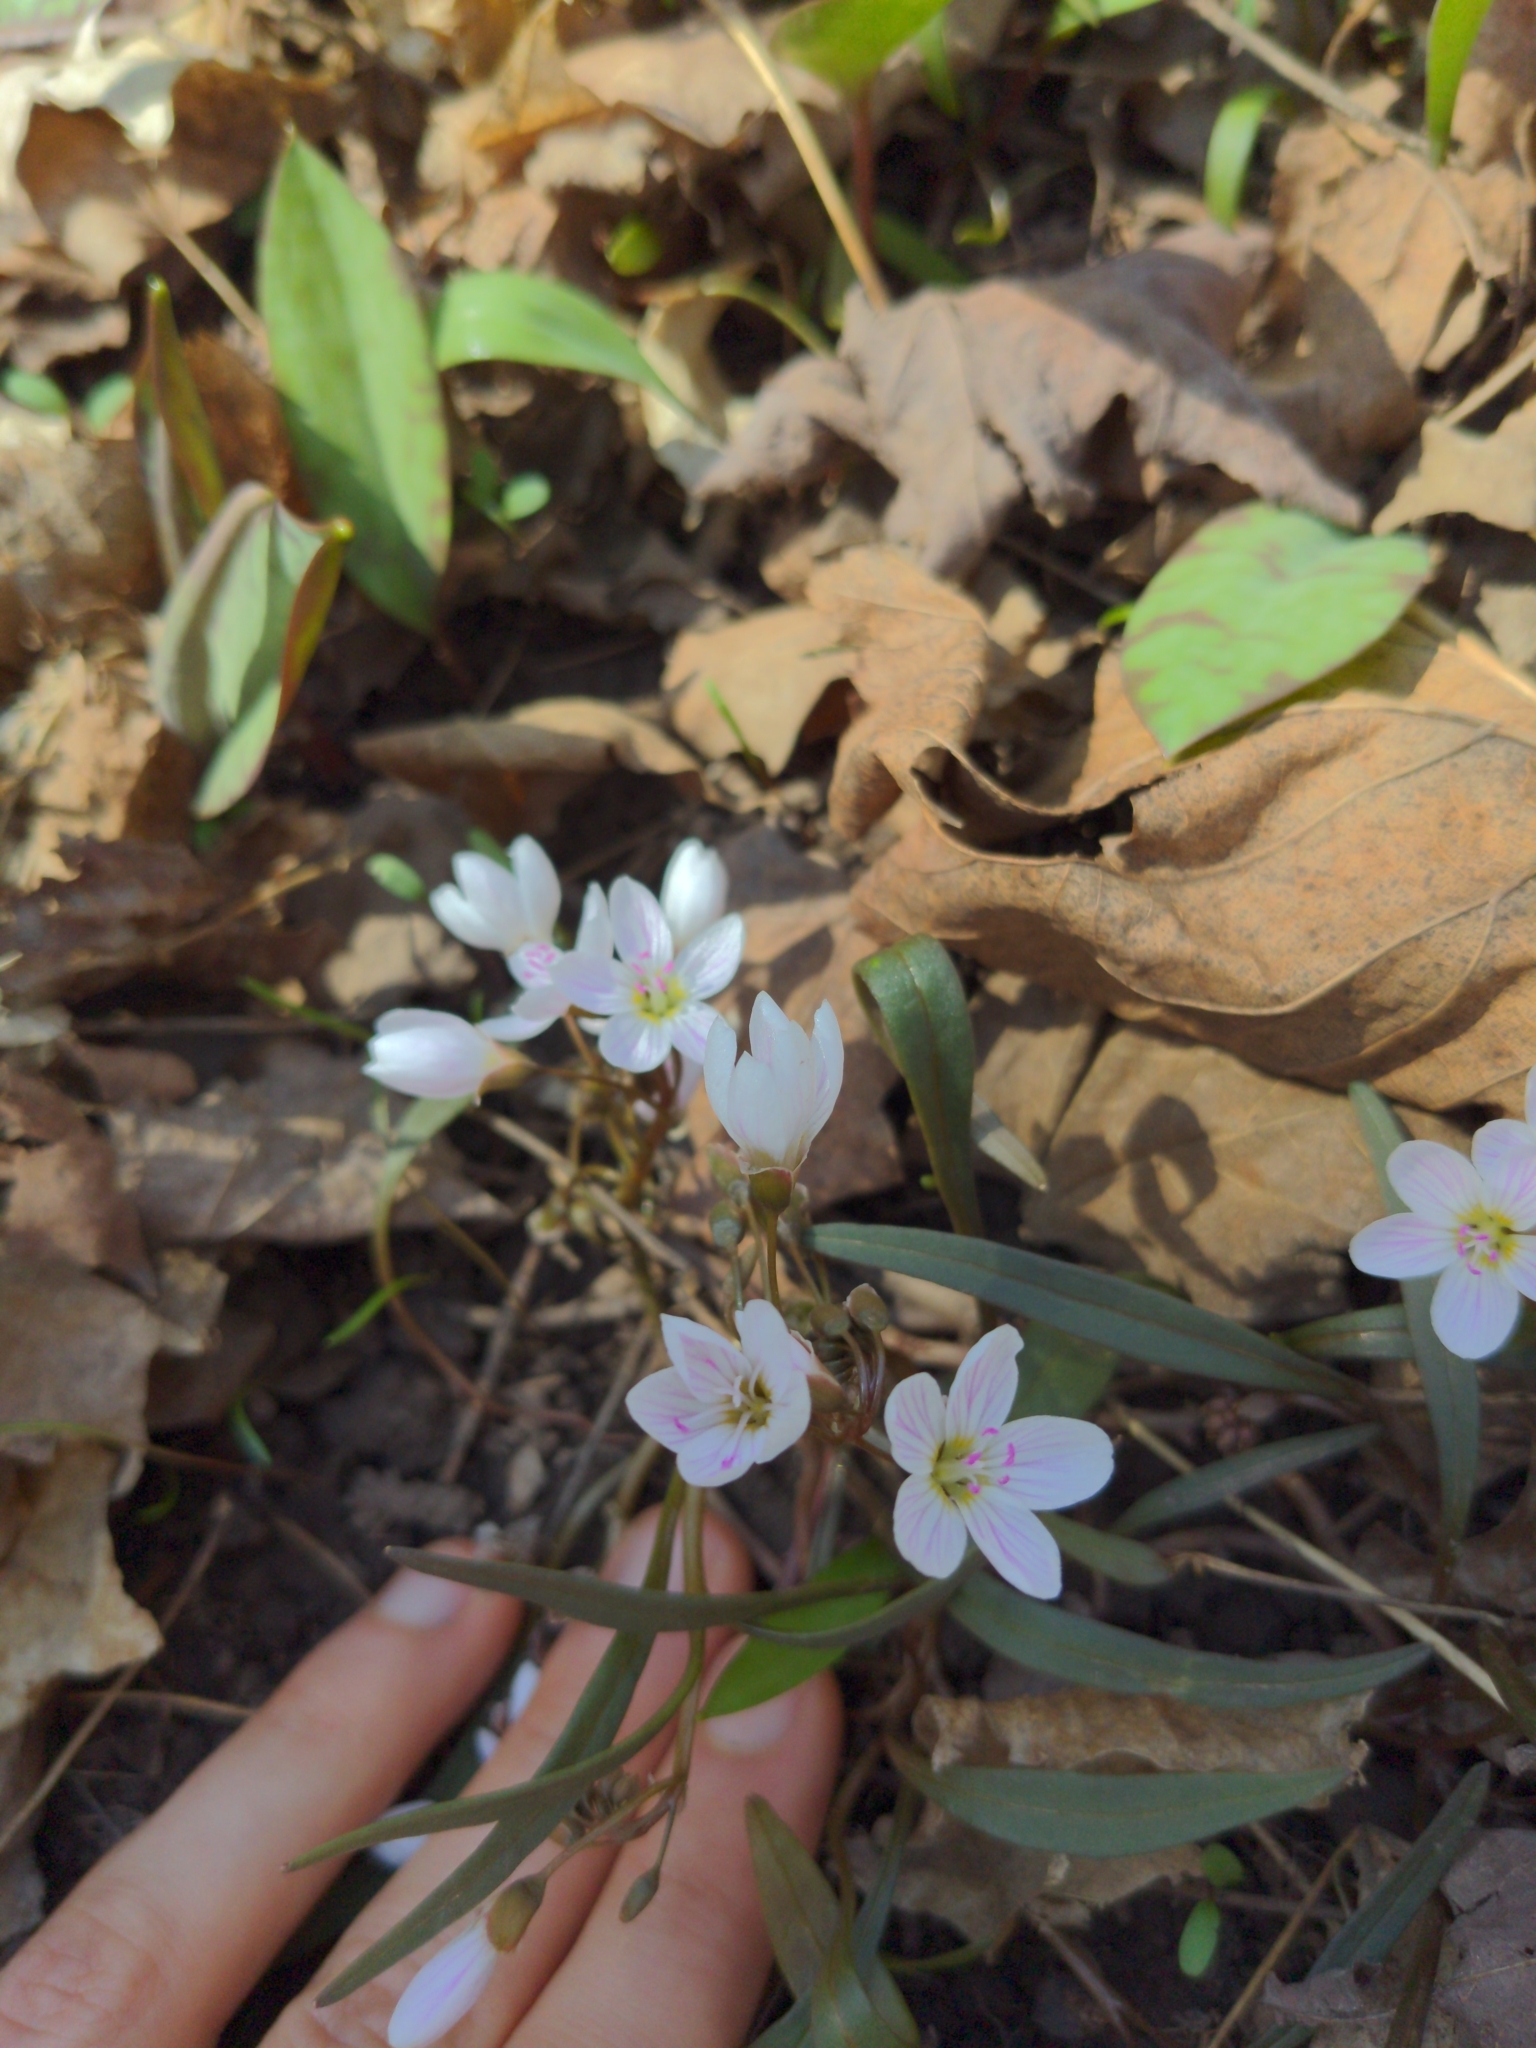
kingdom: Plantae
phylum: Tracheophyta
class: Magnoliopsida
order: Caryophyllales
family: Montiaceae
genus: Claytonia
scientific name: Claytonia virginica
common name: Virginia springbeauty
